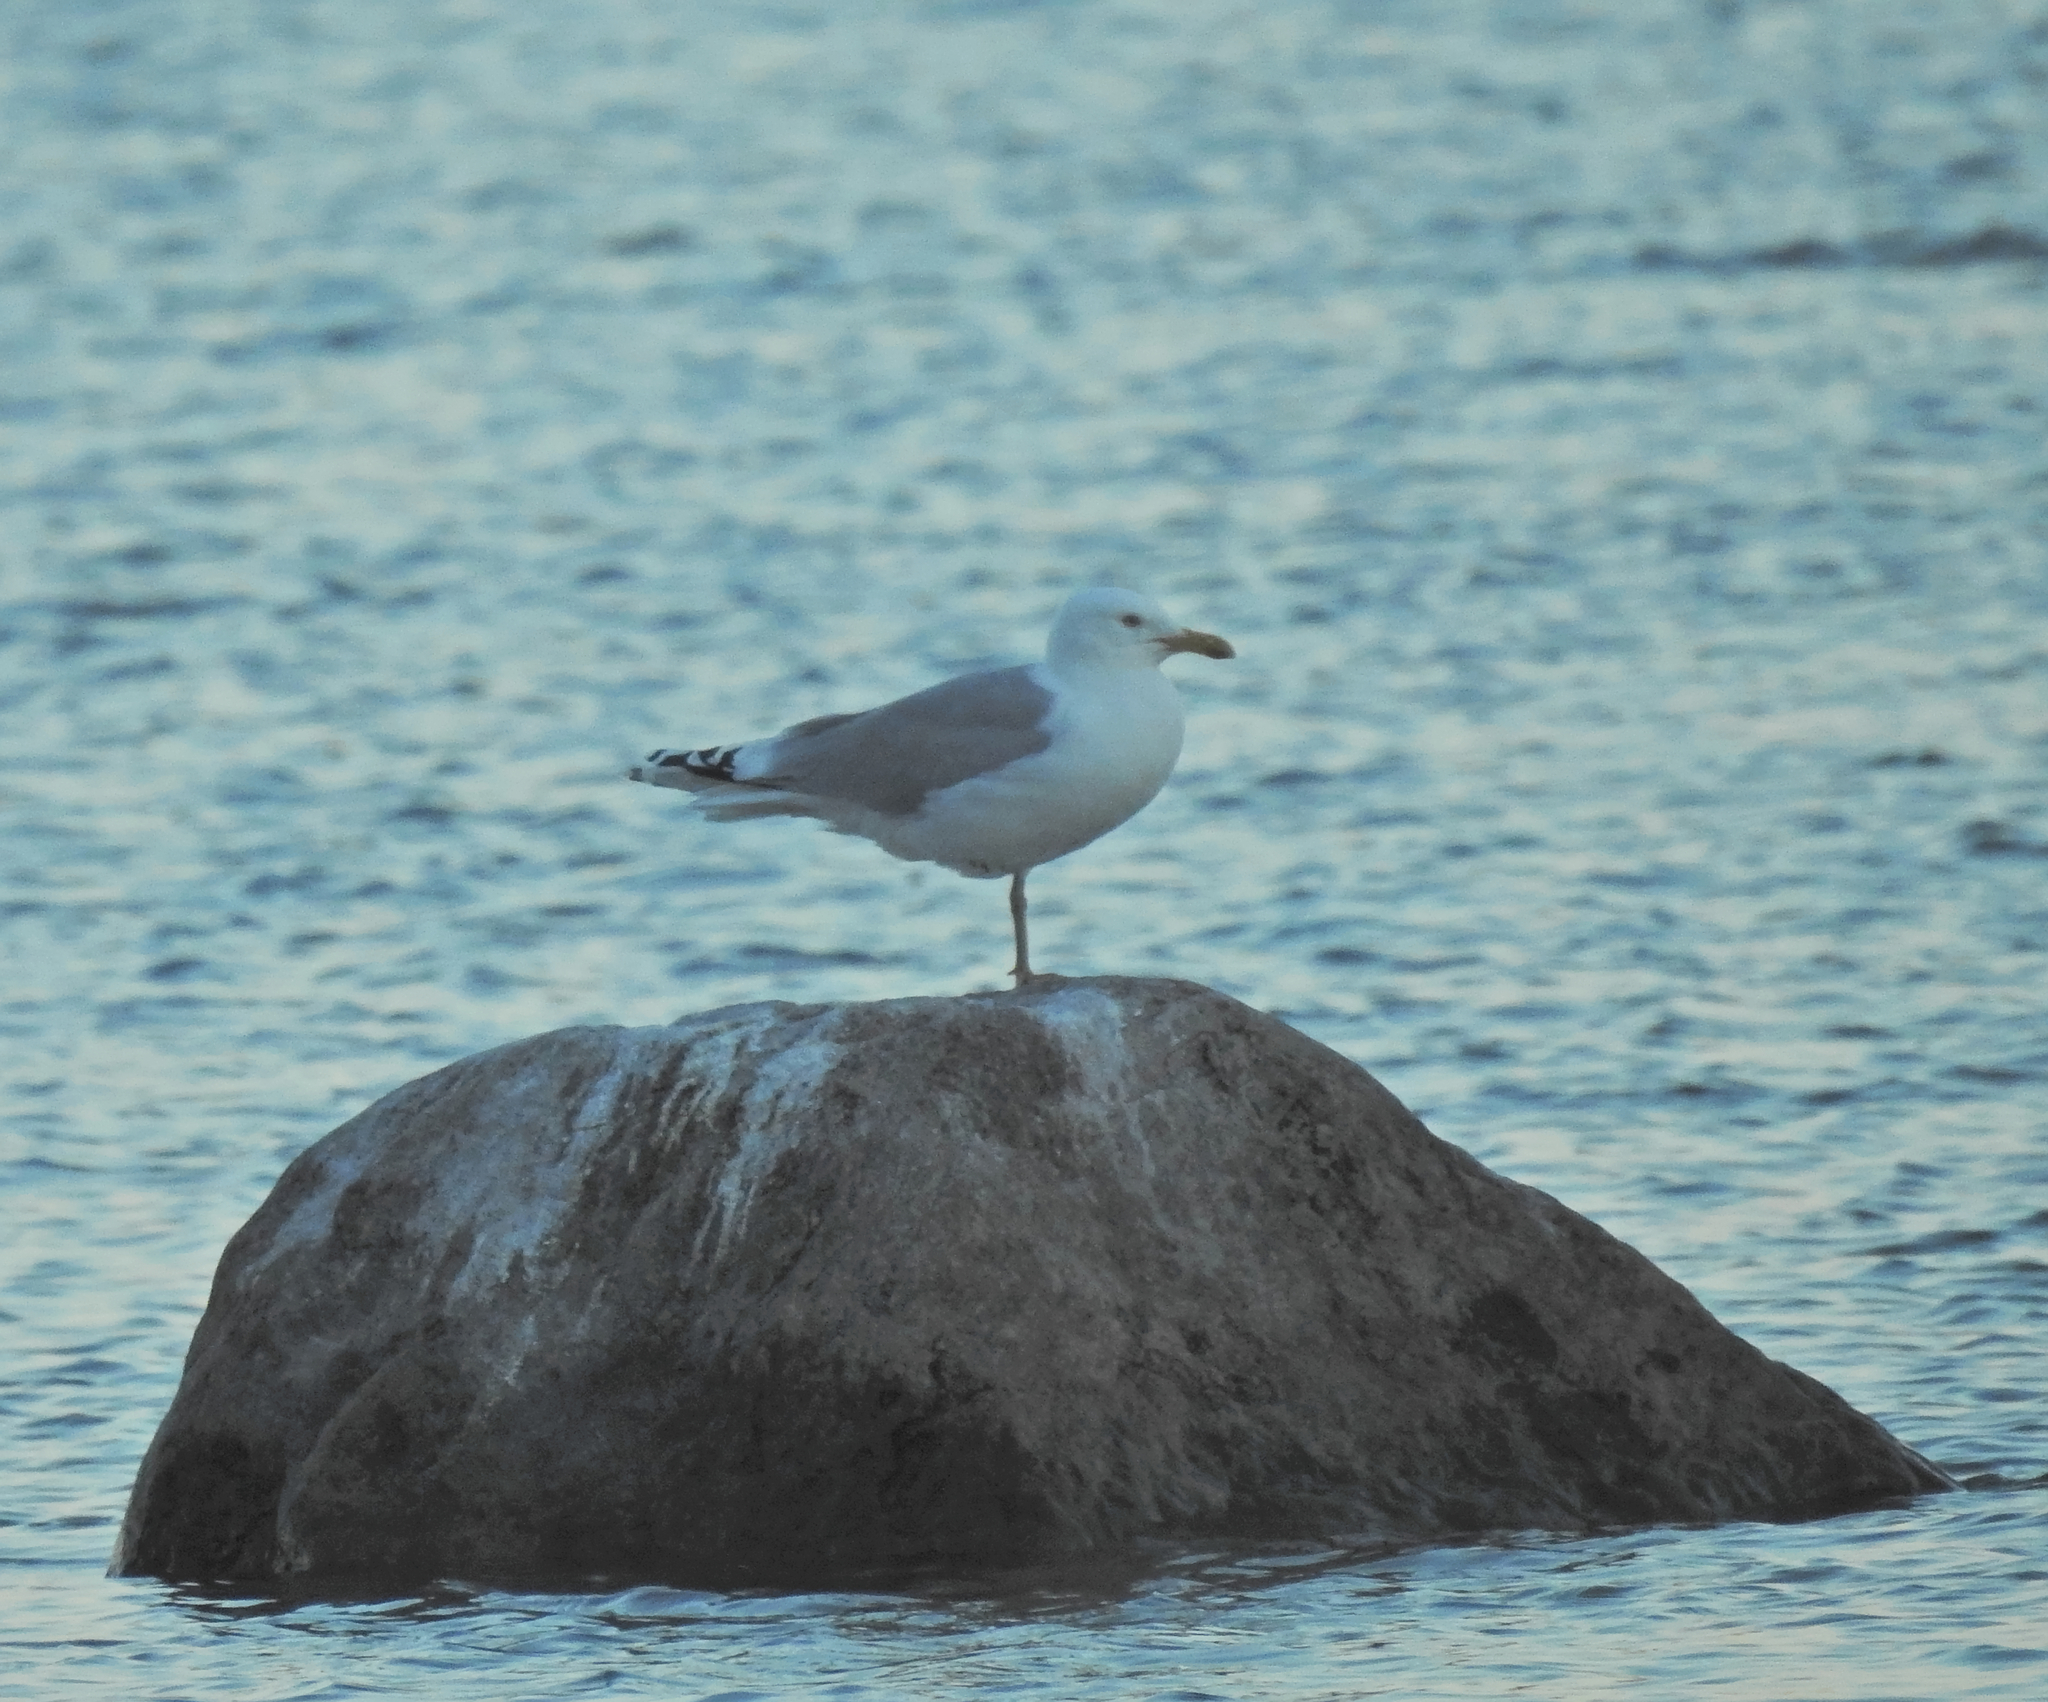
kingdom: Animalia
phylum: Chordata
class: Aves
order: Charadriiformes
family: Laridae
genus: Larus
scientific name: Larus argentatus
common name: Herring gull
